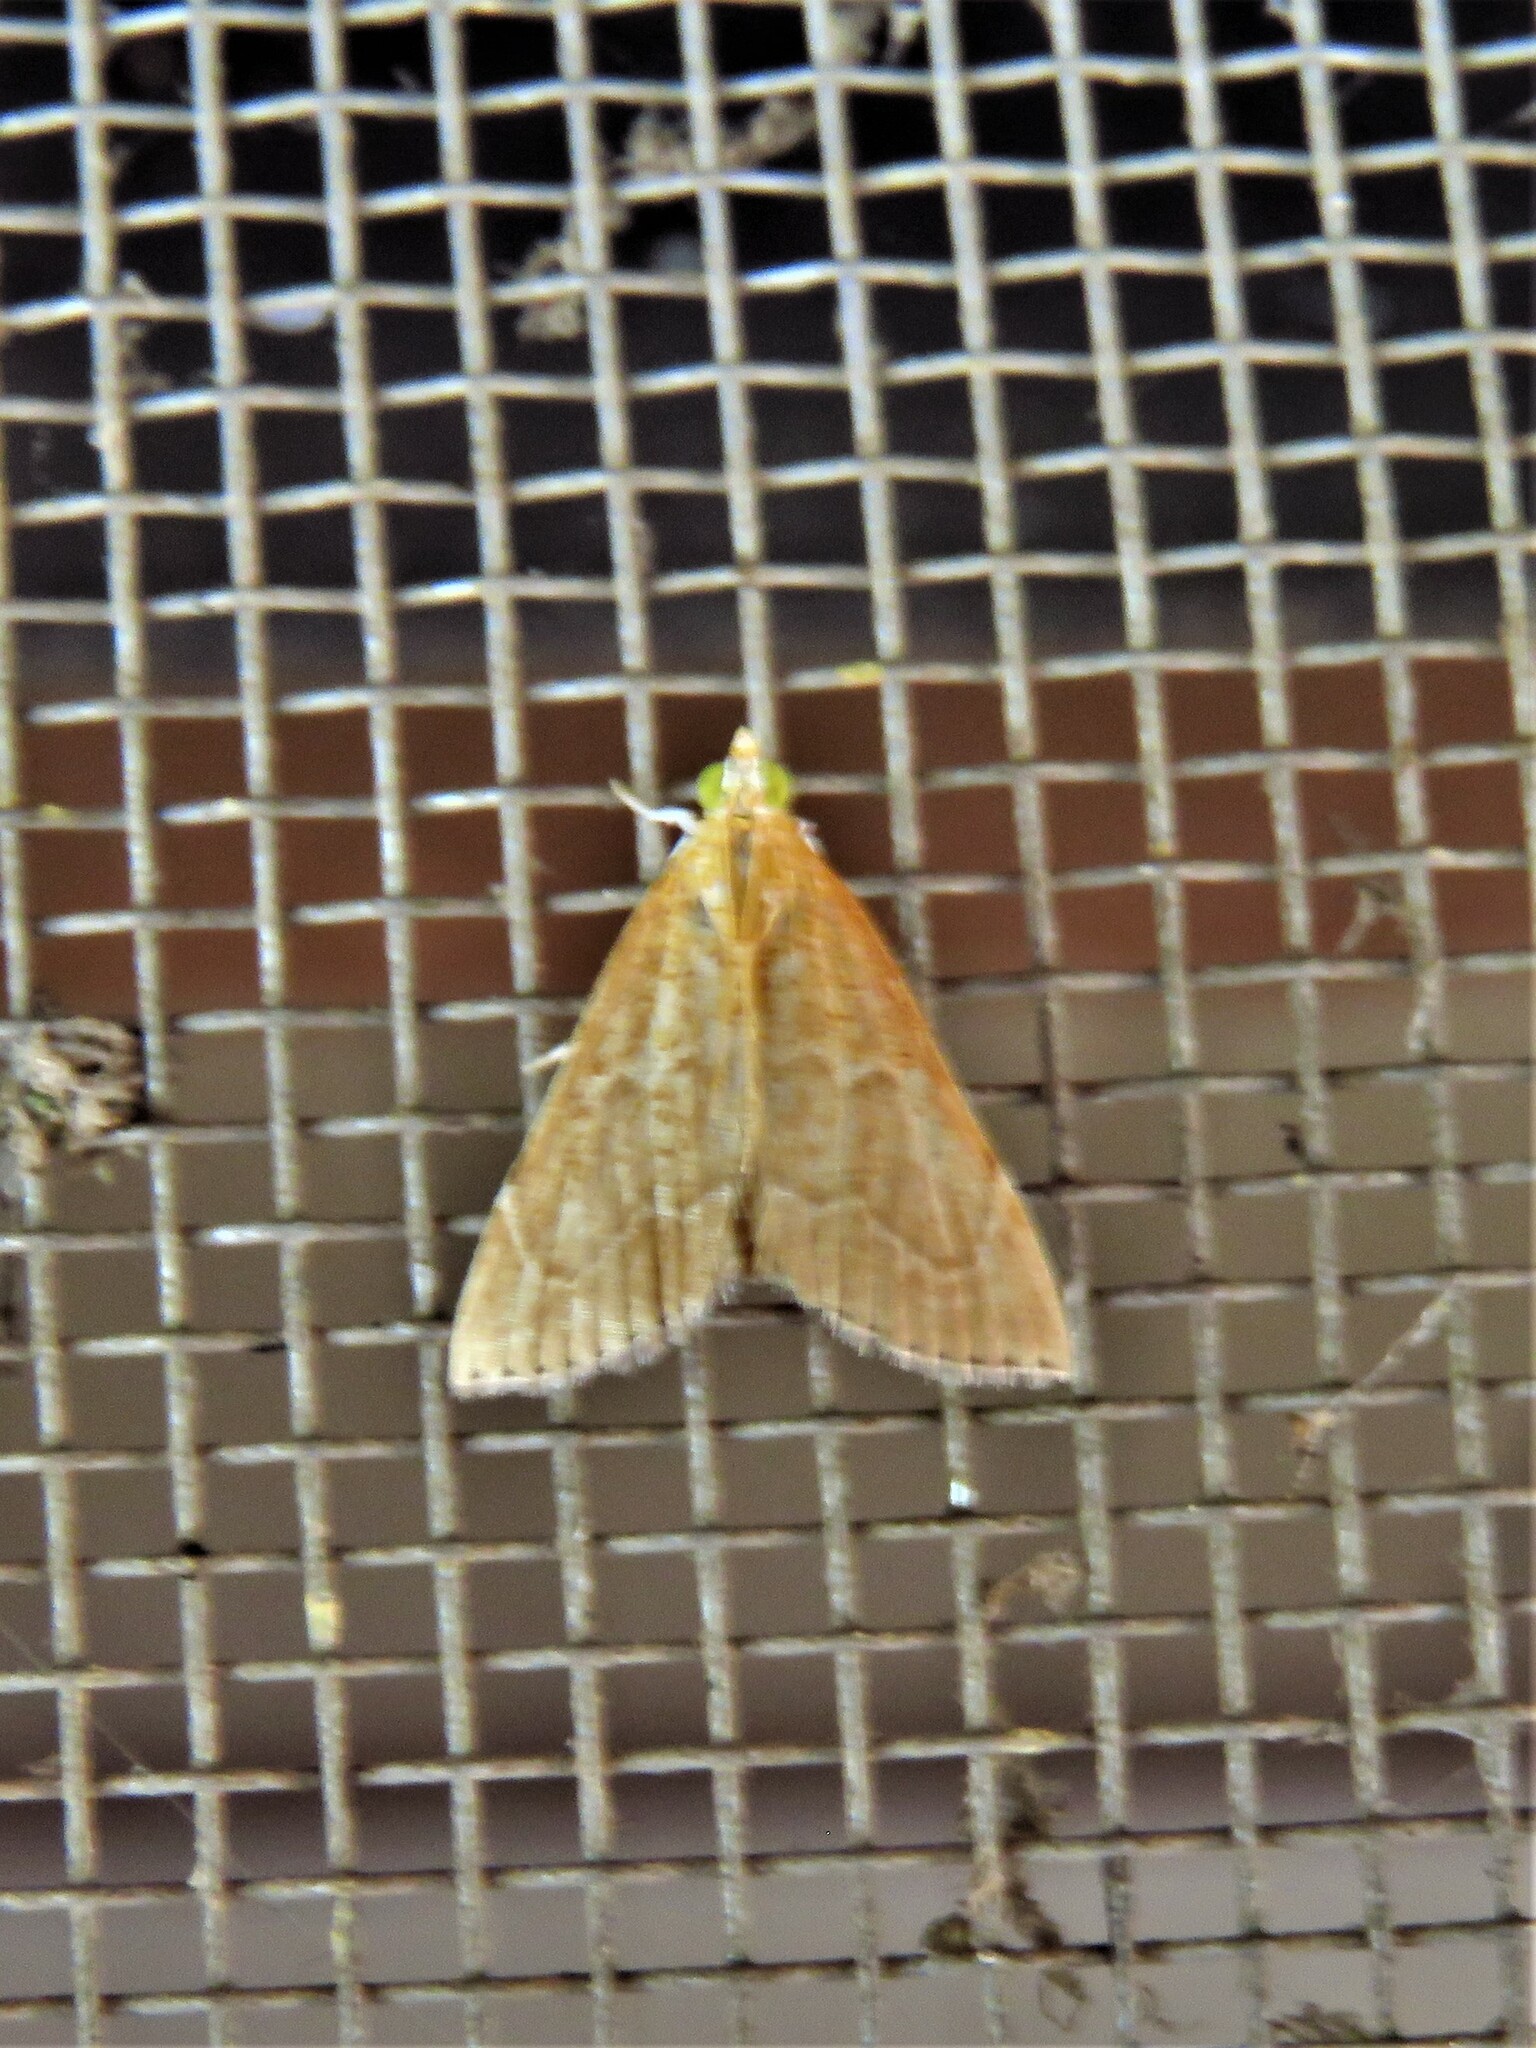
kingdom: Animalia
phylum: Arthropoda
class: Insecta
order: Lepidoptera
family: Crambidae
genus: Glaphyria
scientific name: Glaphyria invisalis
